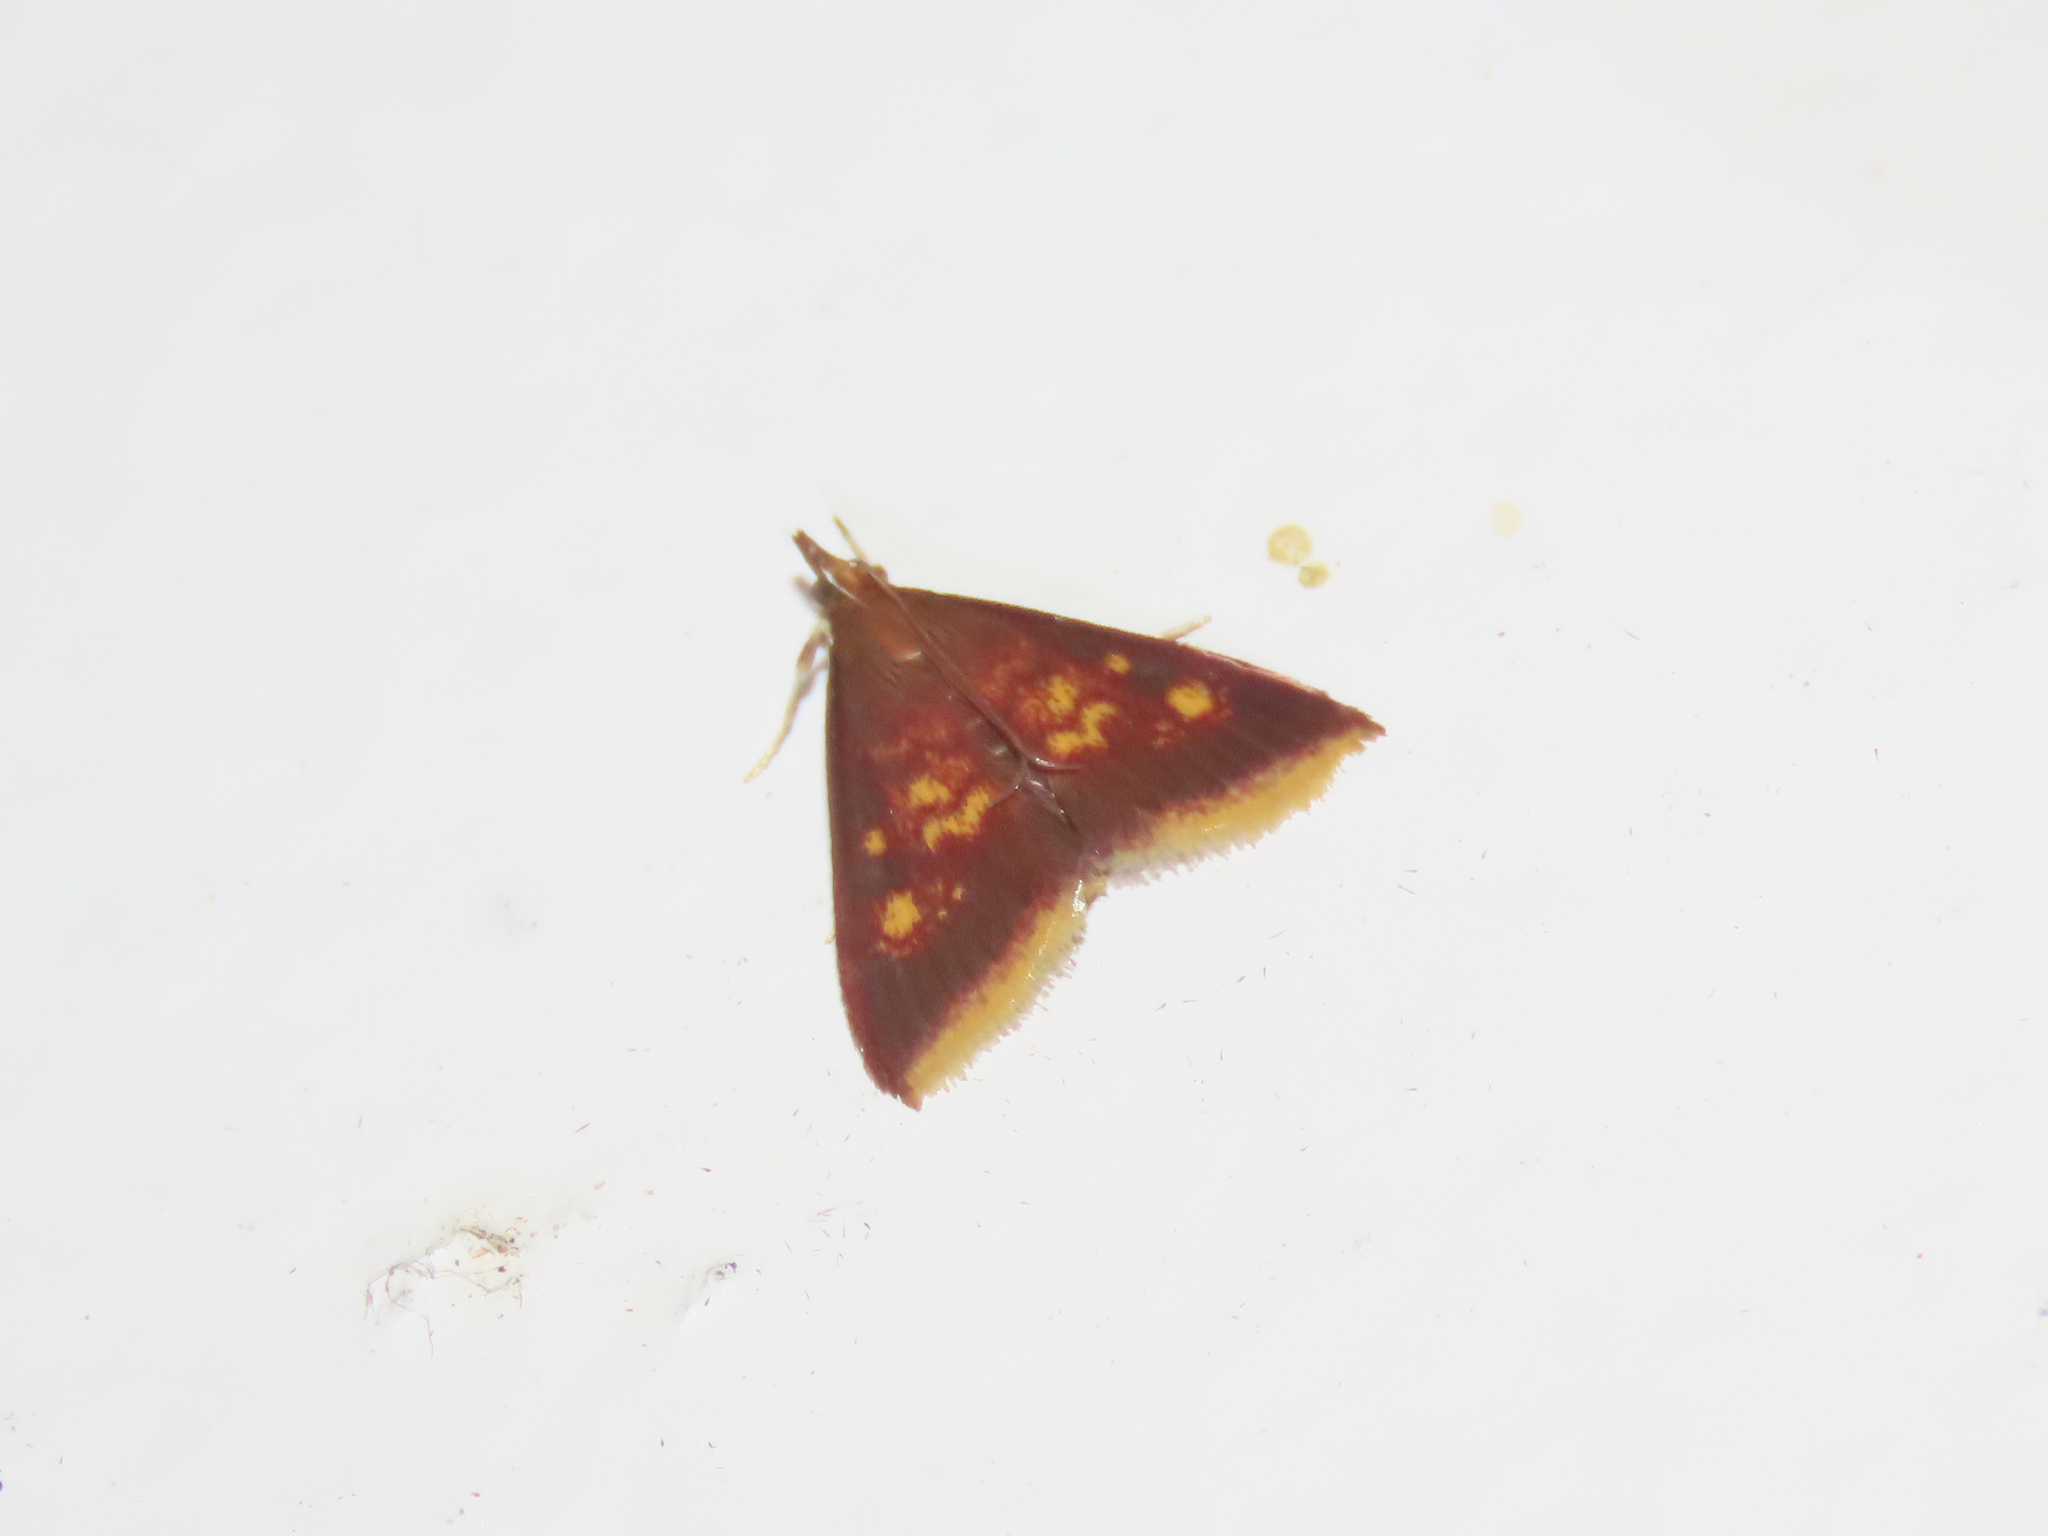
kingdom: Animalia
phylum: Arthropoda
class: Insecta
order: Lepidoptera
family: Crambidae
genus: Pyrausta
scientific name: Pyrausta acrionalis
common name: Mint-loving pyrausta moth
